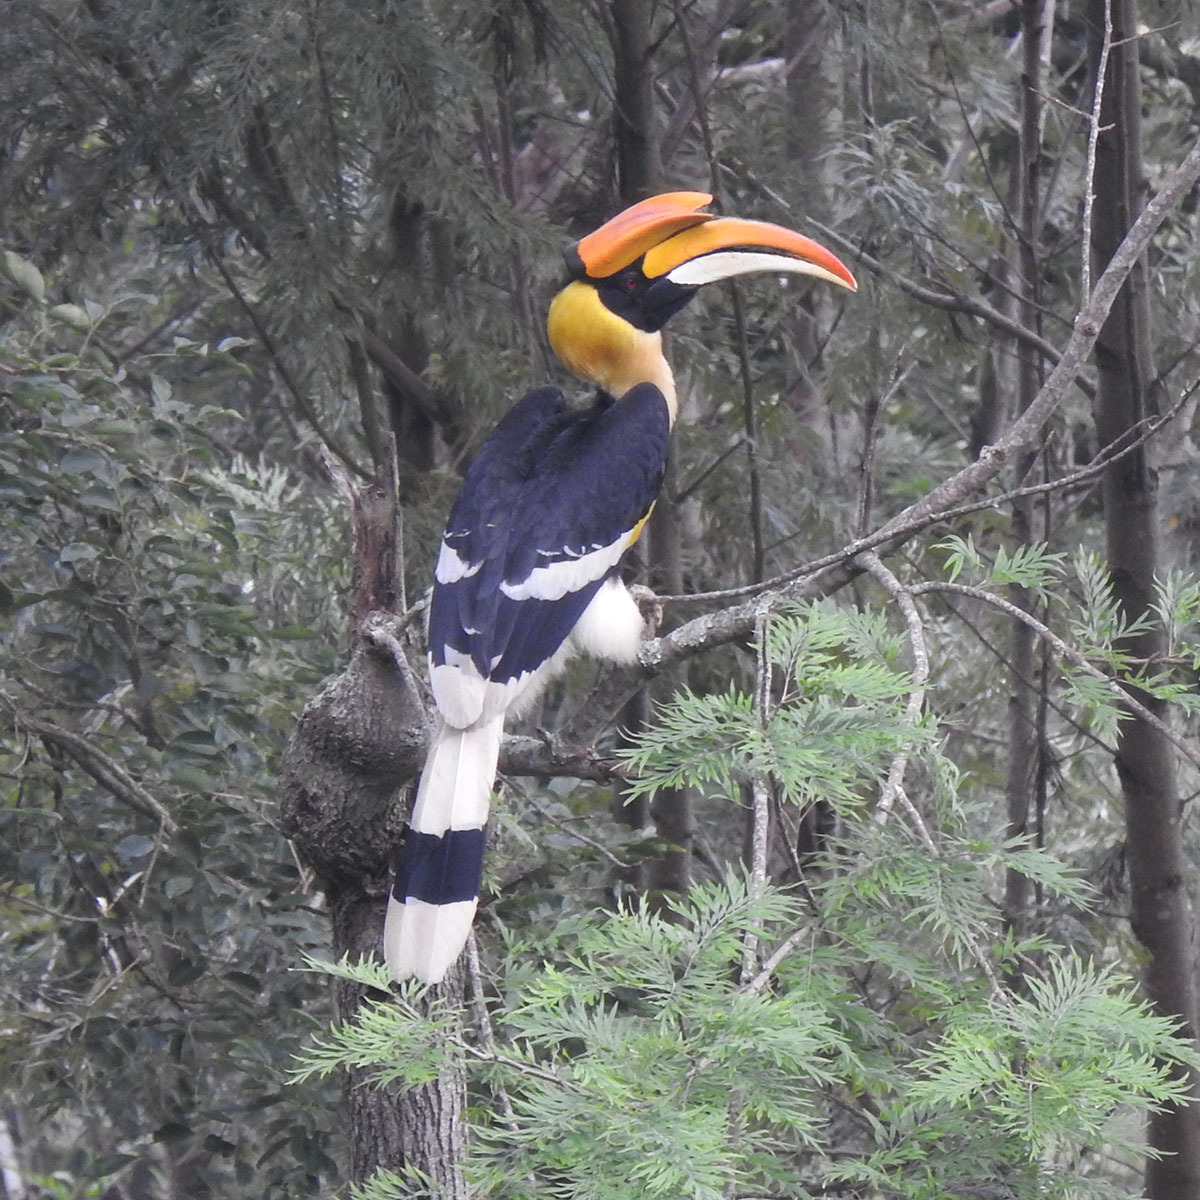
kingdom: Animalia
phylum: Chordata
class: Aves
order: Bucerotiformes
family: Bucerotidae
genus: Buceros
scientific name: Buceros bicornis
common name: Great hornbill
